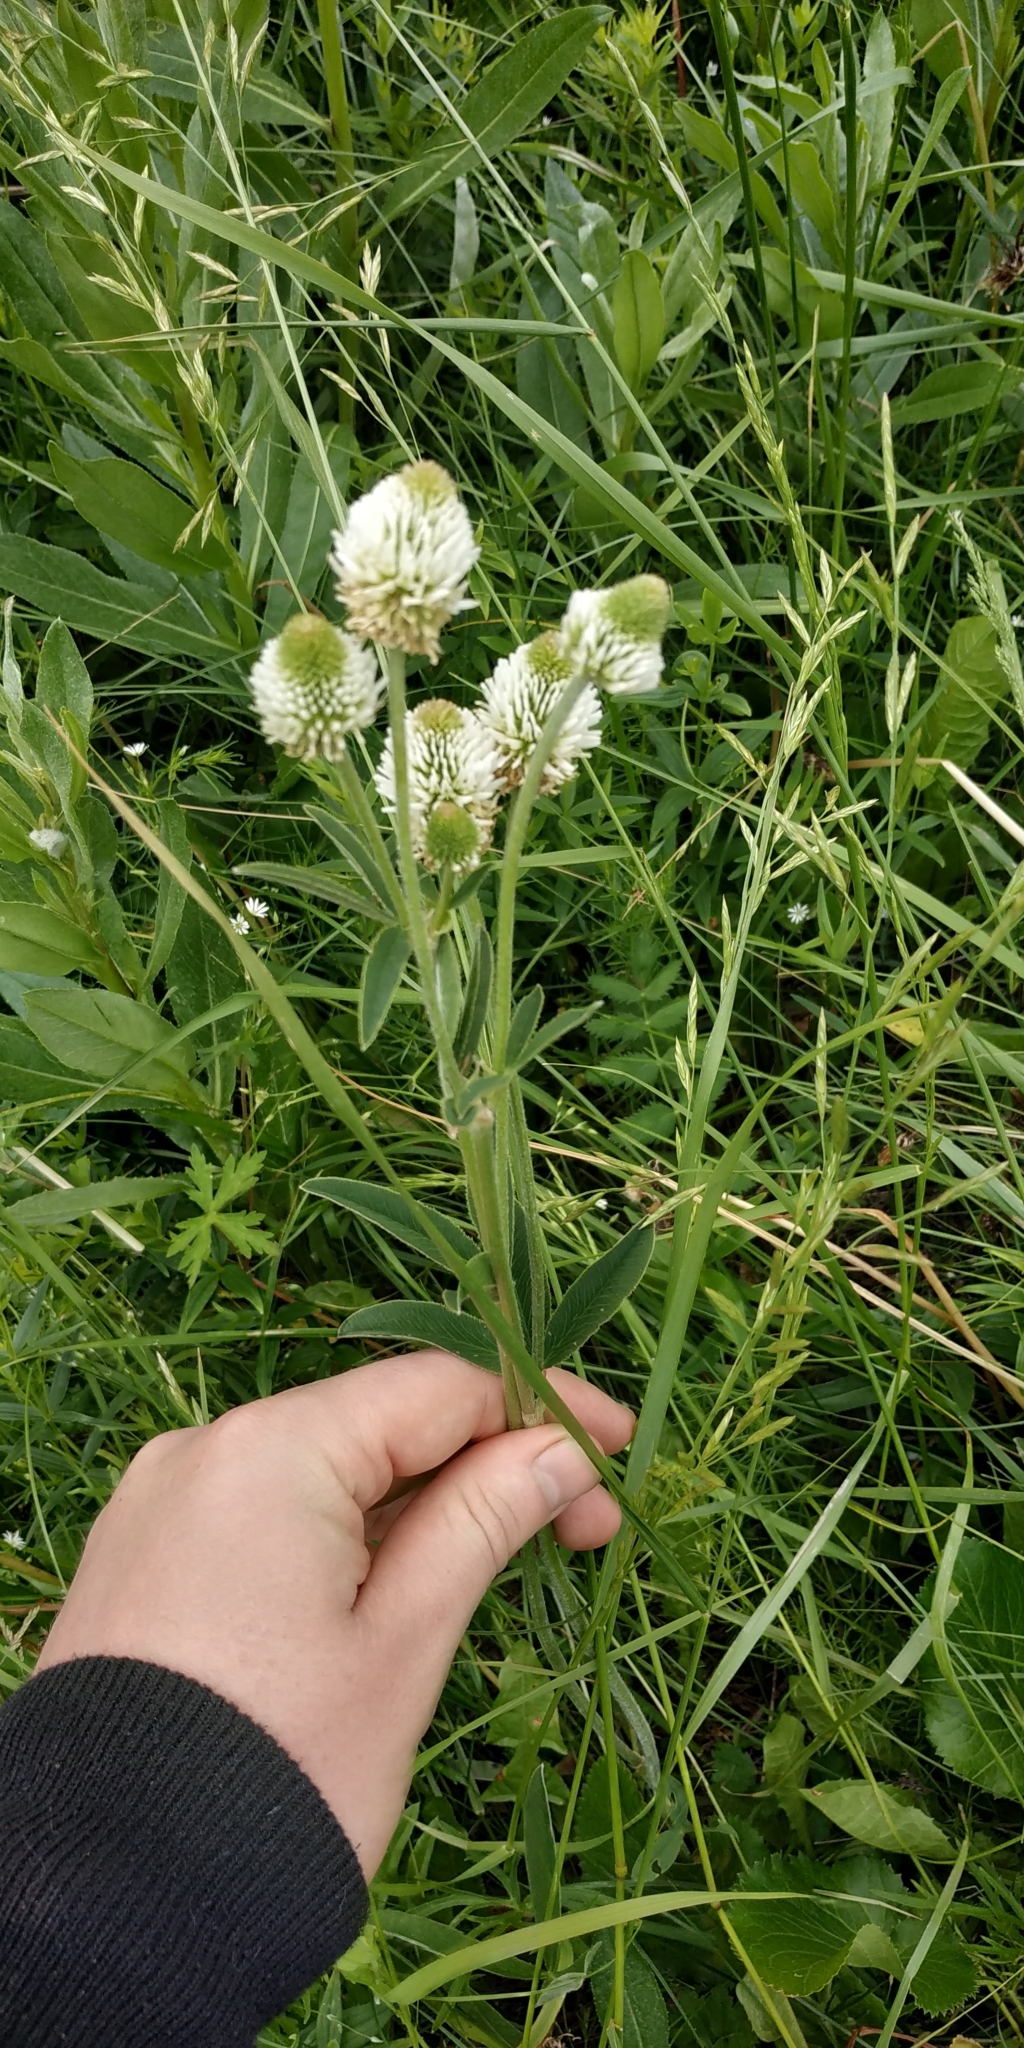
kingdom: Plantae
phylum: Tracheophyta
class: Magnoliopsida
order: Fabales
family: Fabaceae
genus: Trifolium
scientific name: Trifolium montanum
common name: Mountain clover
